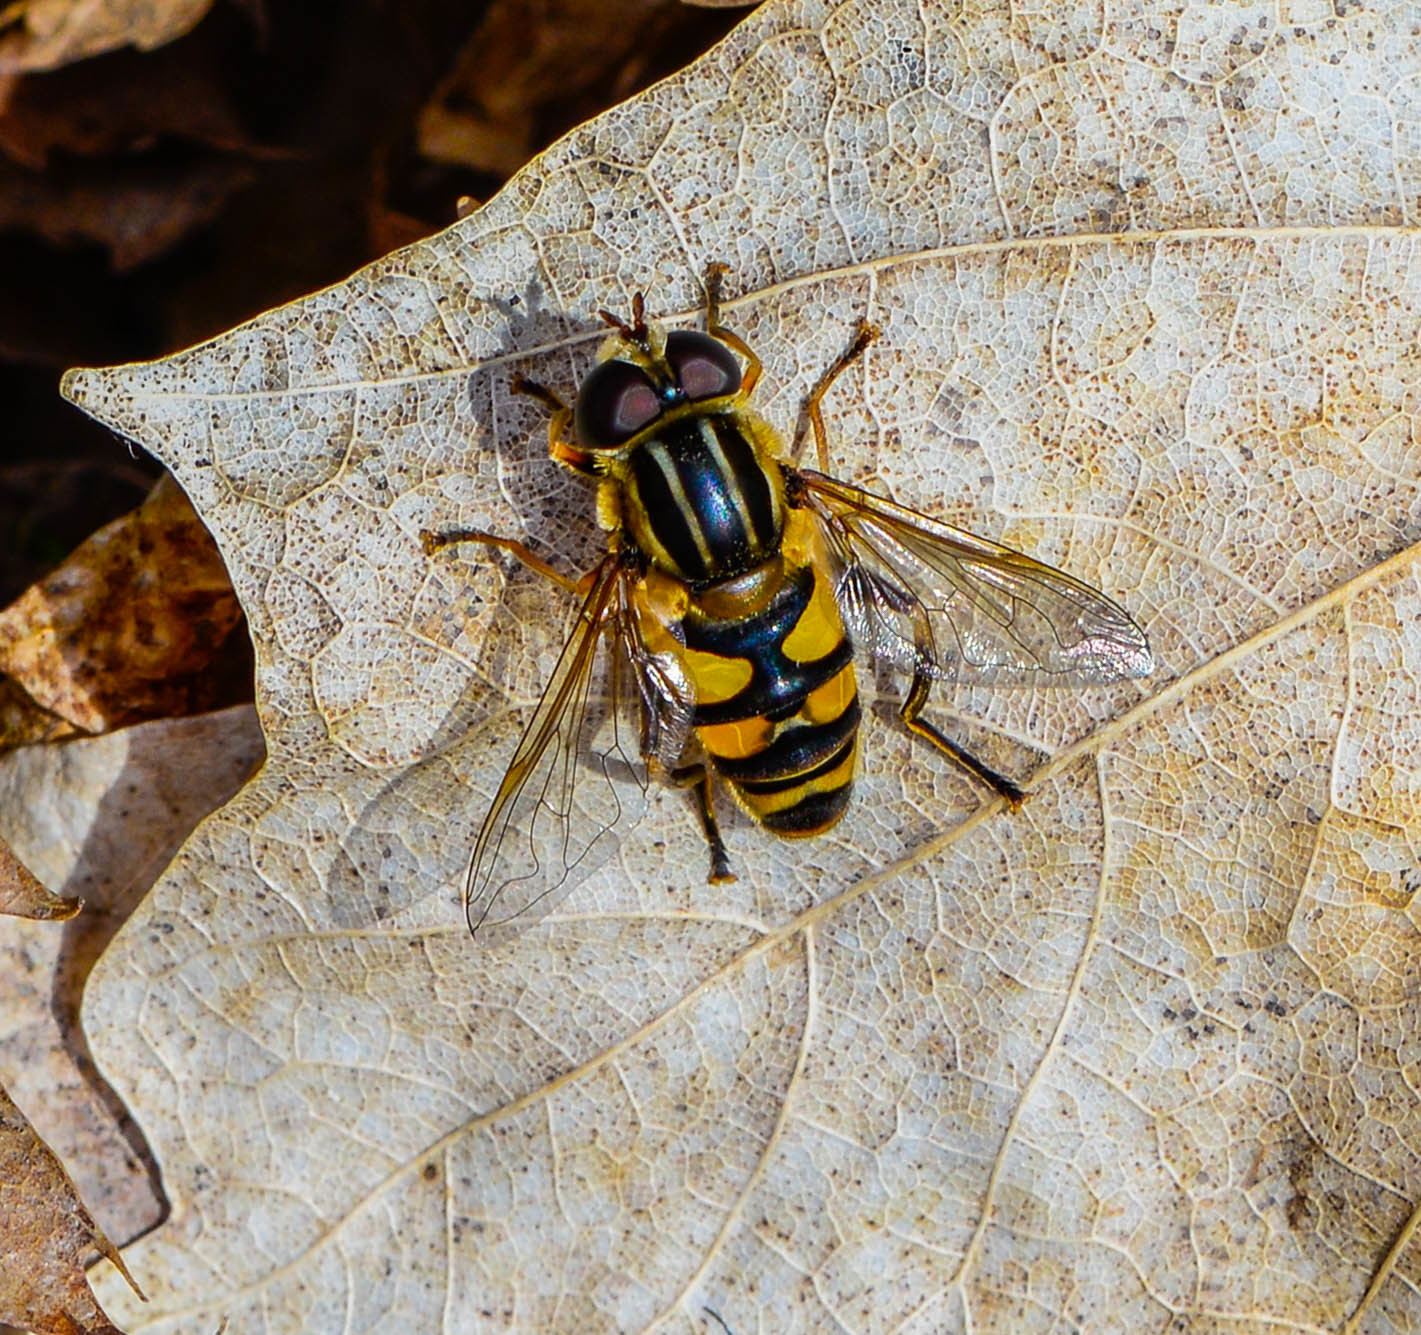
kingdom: Animalia
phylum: Arthropoda
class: Insecta
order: Diptera
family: Syrphidae
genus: Helophilus
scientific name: Helophilus fasciatus
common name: Narrow-headed marsh fly
